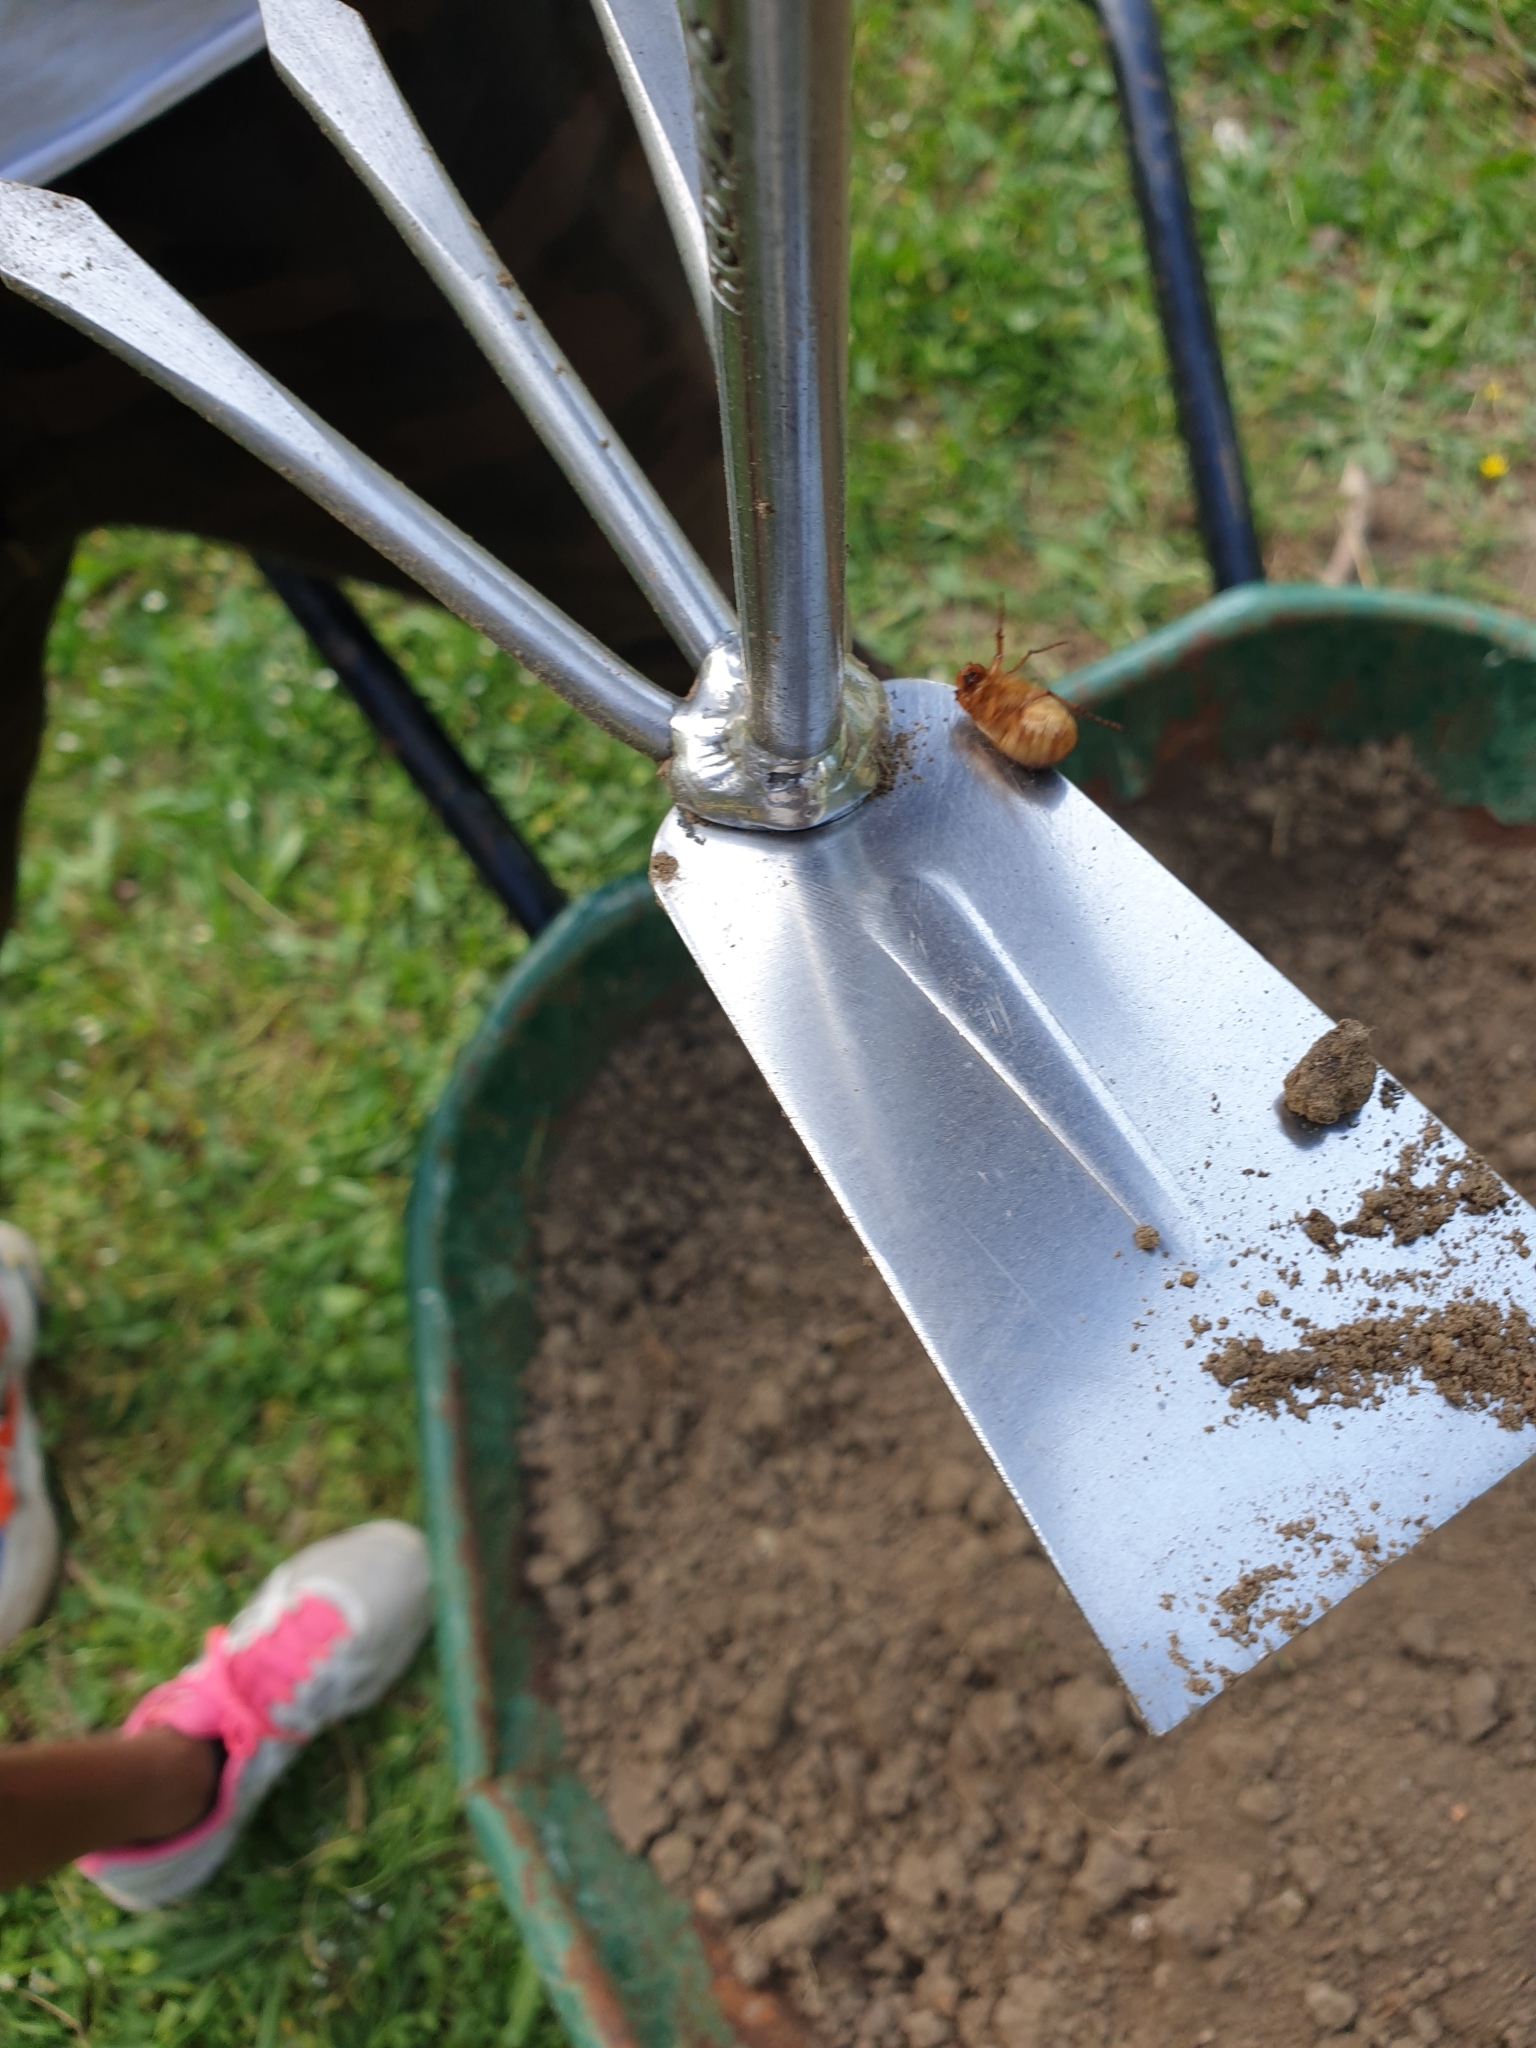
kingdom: Animalia
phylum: Arthropoda
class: Insecta
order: Coleoptera
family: Scarabaeidae
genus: Amphimallon
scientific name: Amphimallon majale
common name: European chafer
